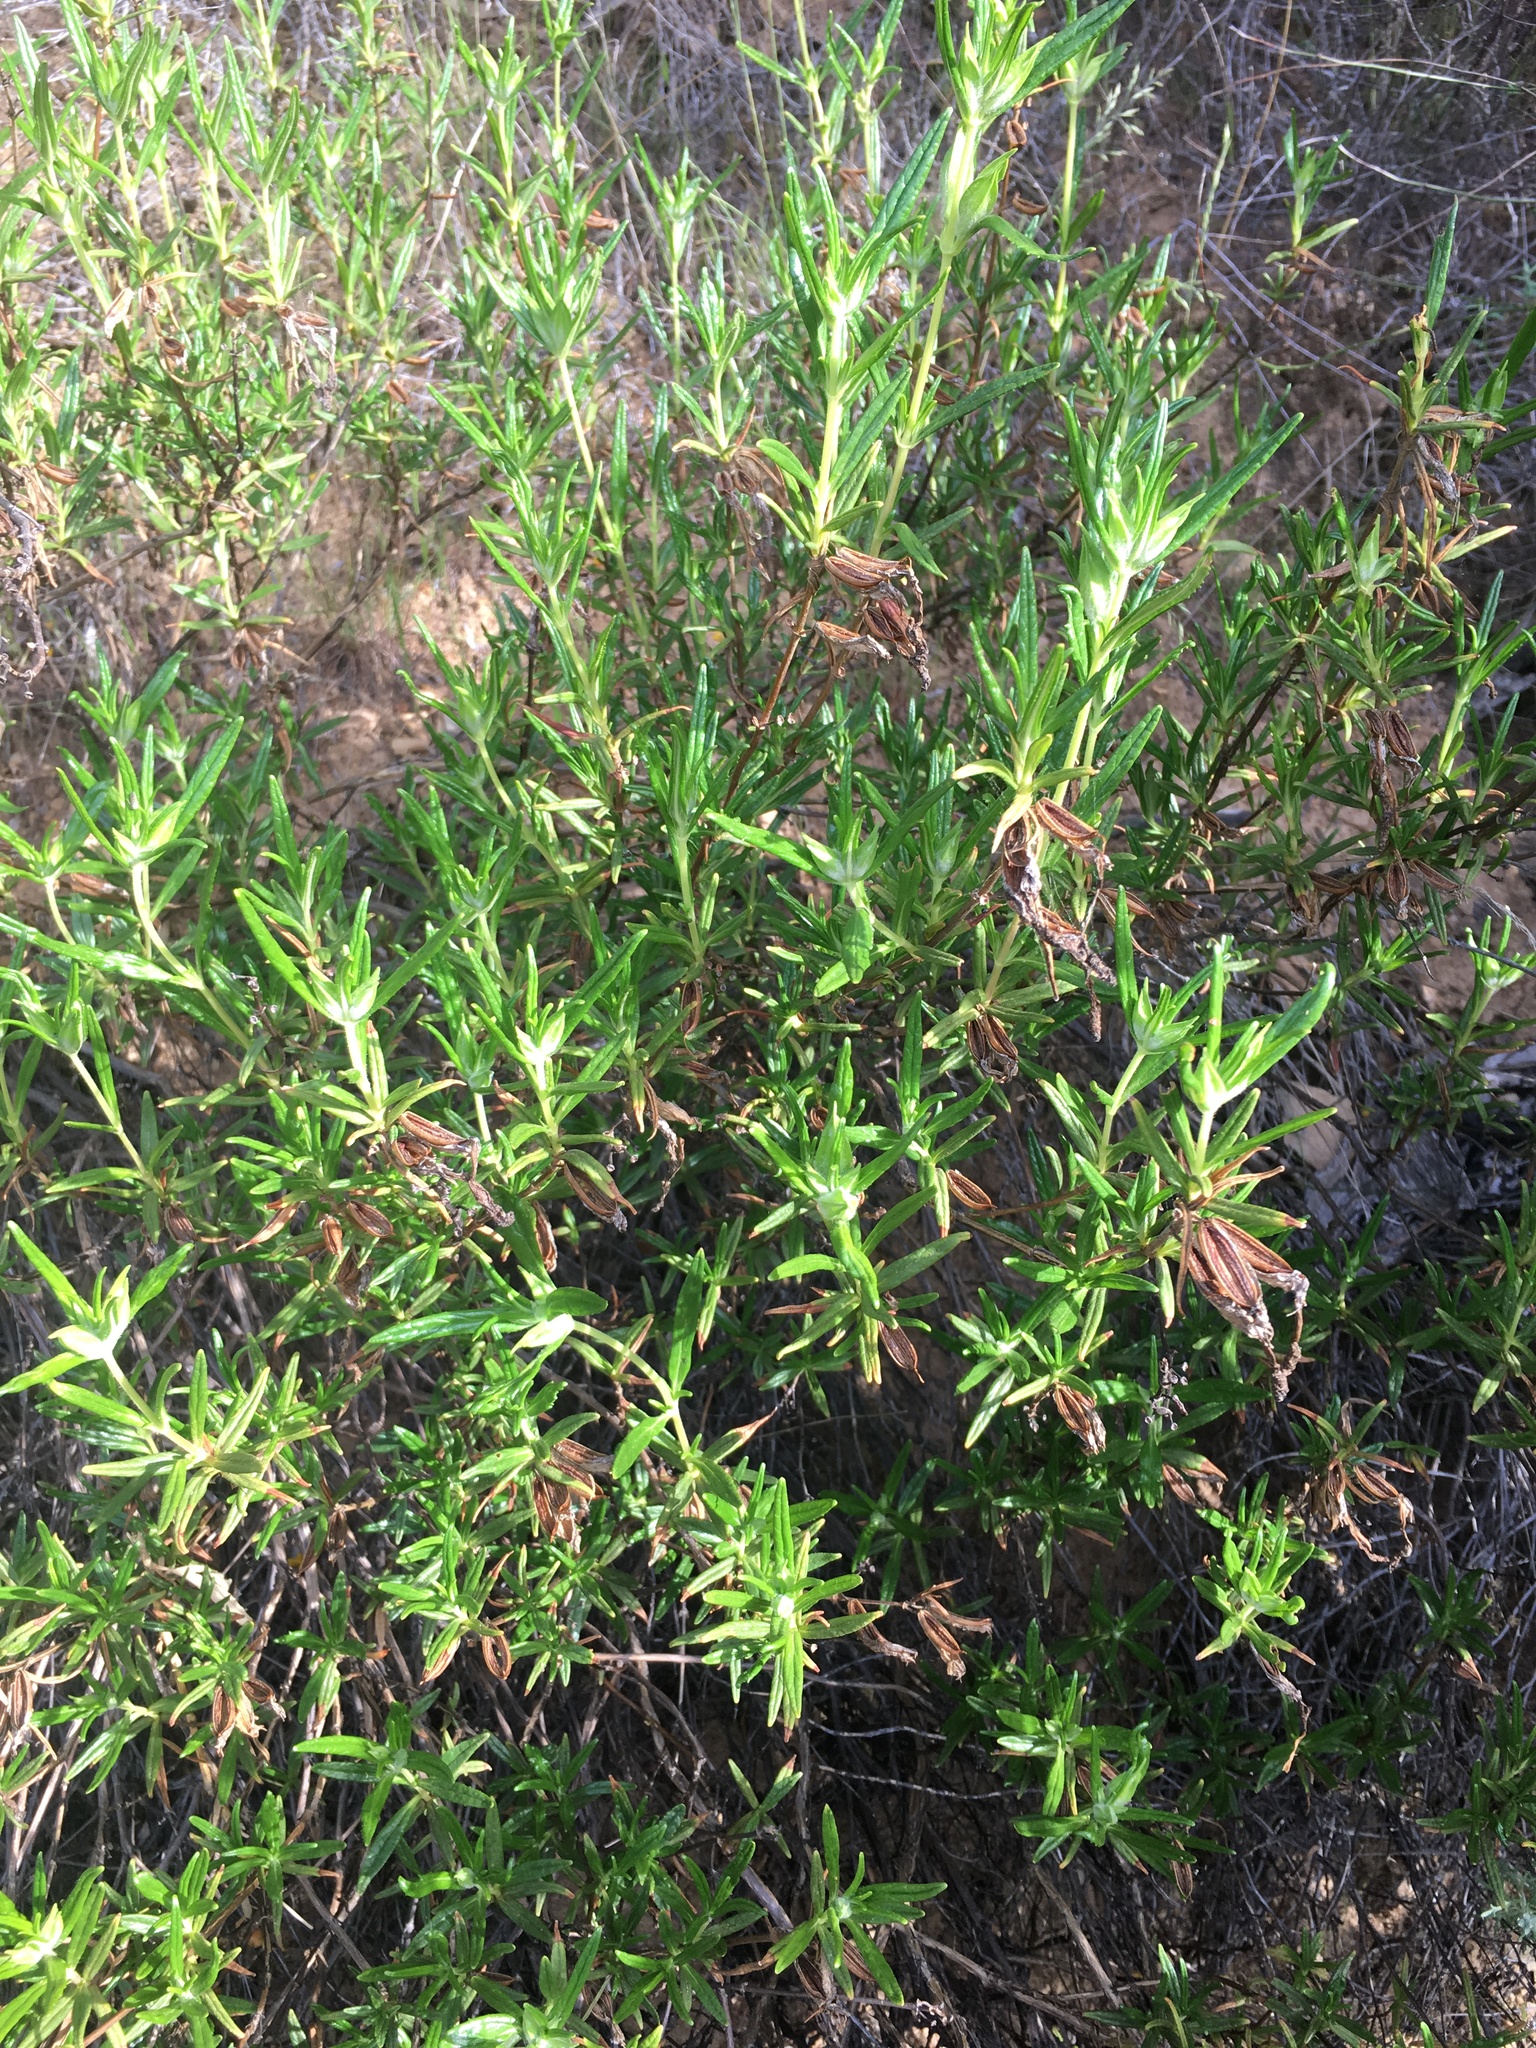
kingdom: Plantae
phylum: Tracheophyta
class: Magnoliopsida
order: Lamiales
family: Phrymaceae
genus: Diplacus
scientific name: Diplacus longiflorus
